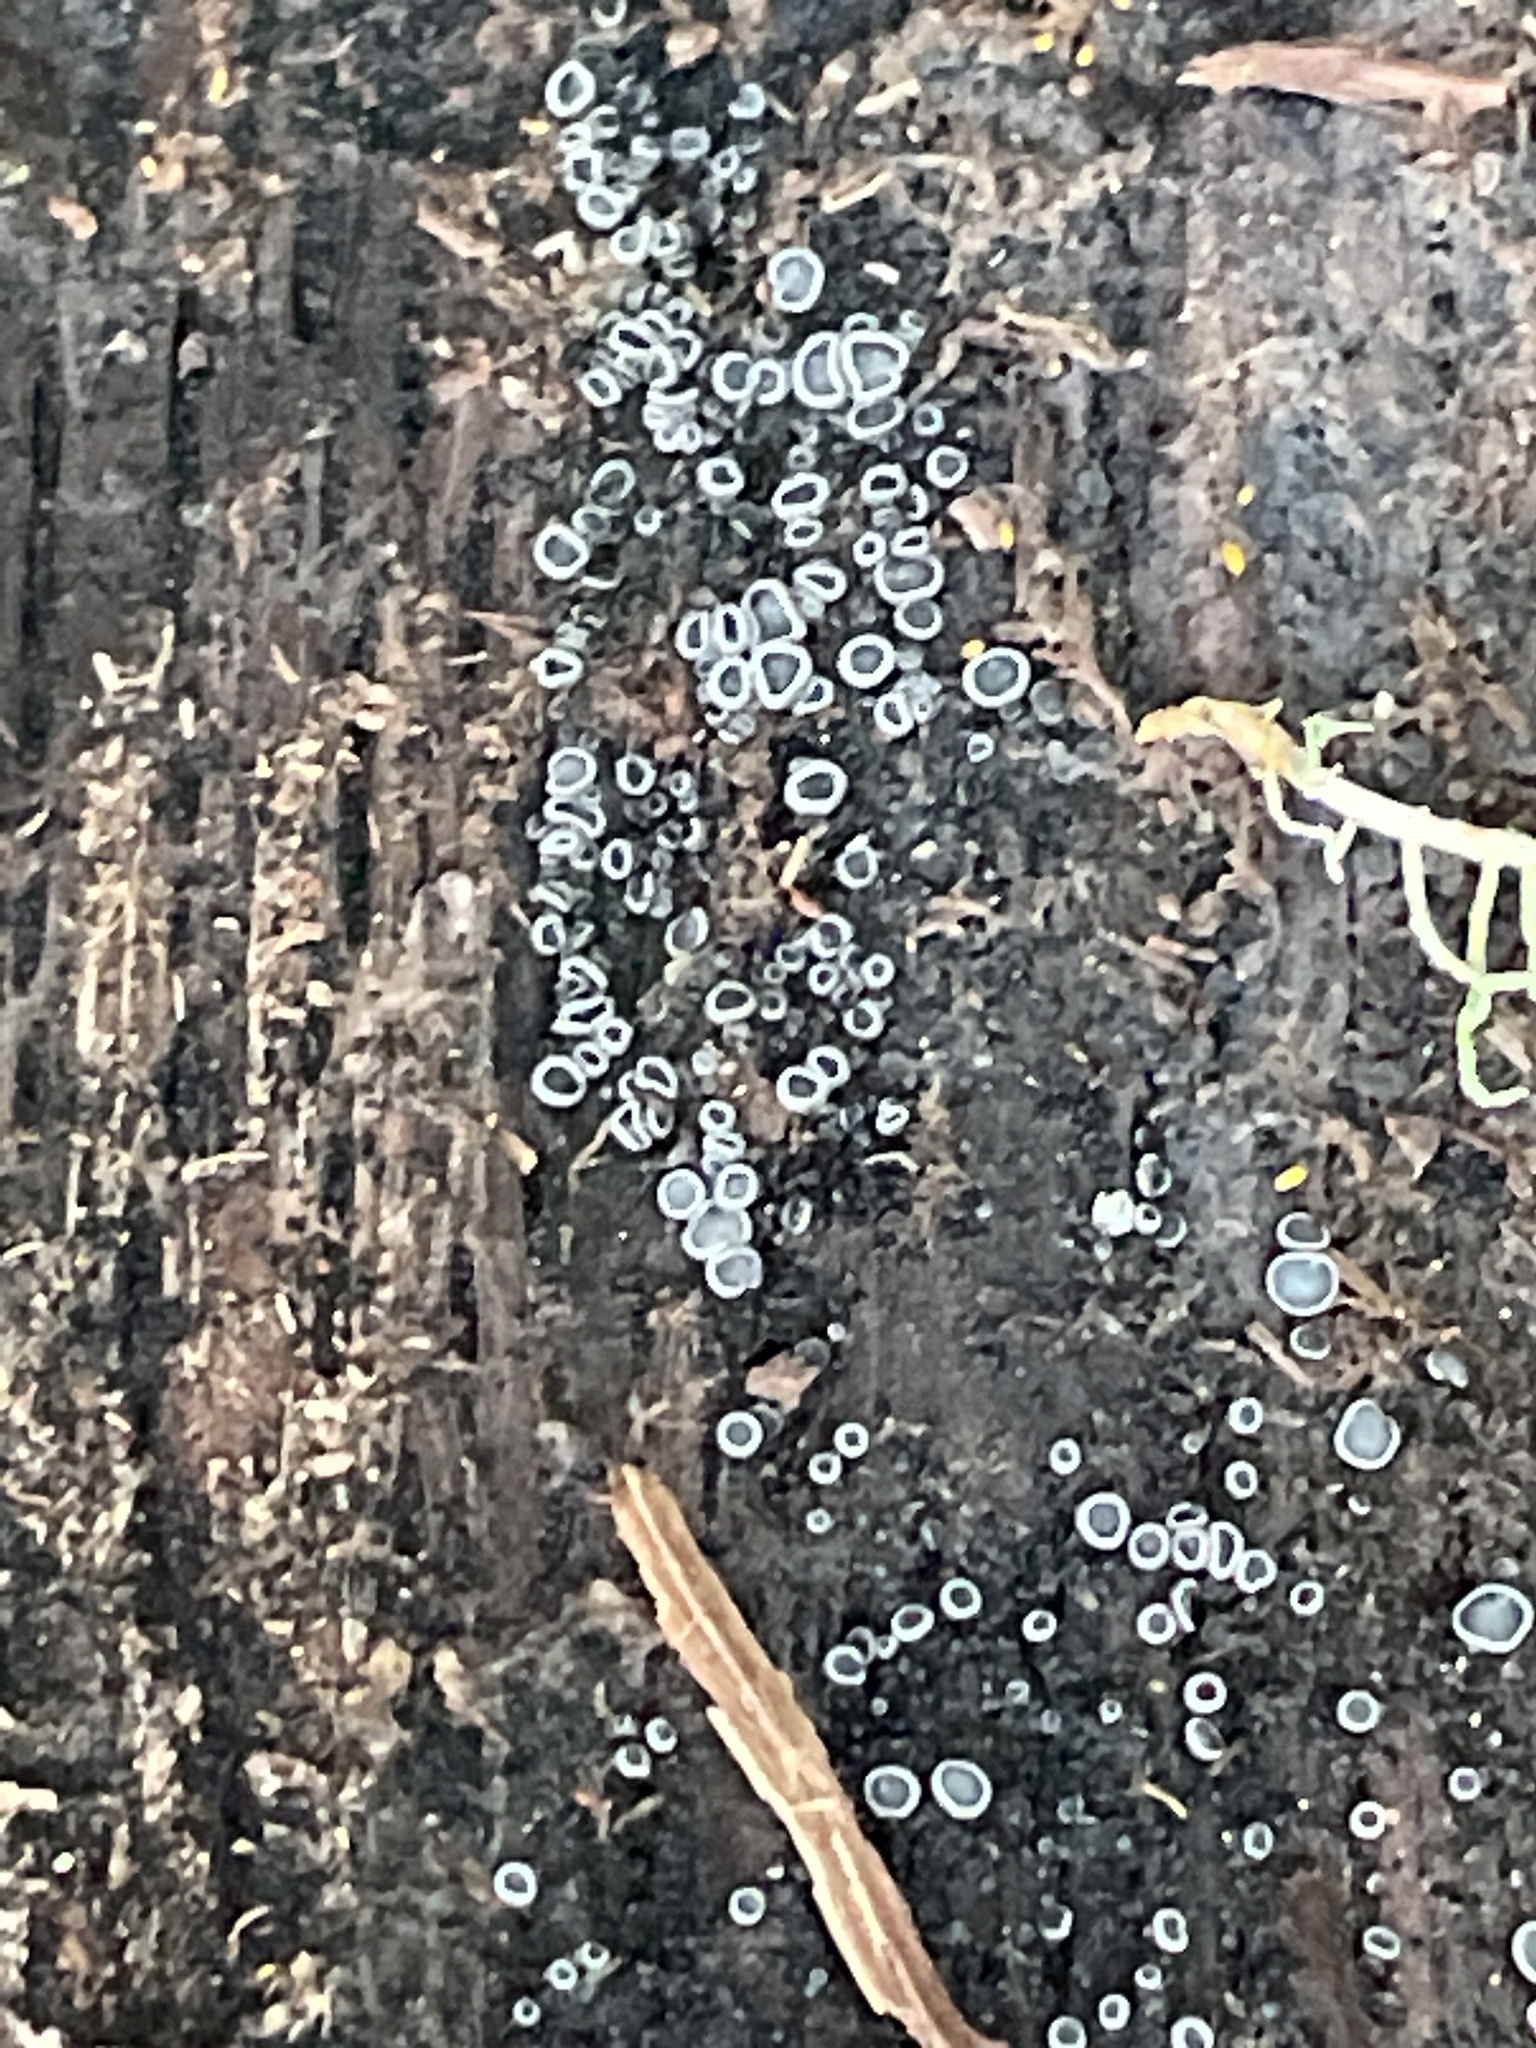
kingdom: Fungi
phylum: Ascomycota
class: Leotiomycetes
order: Helotiales
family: Mollisiaceae
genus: Mollisia
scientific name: Mollisia cinerea
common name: Common grey disco
